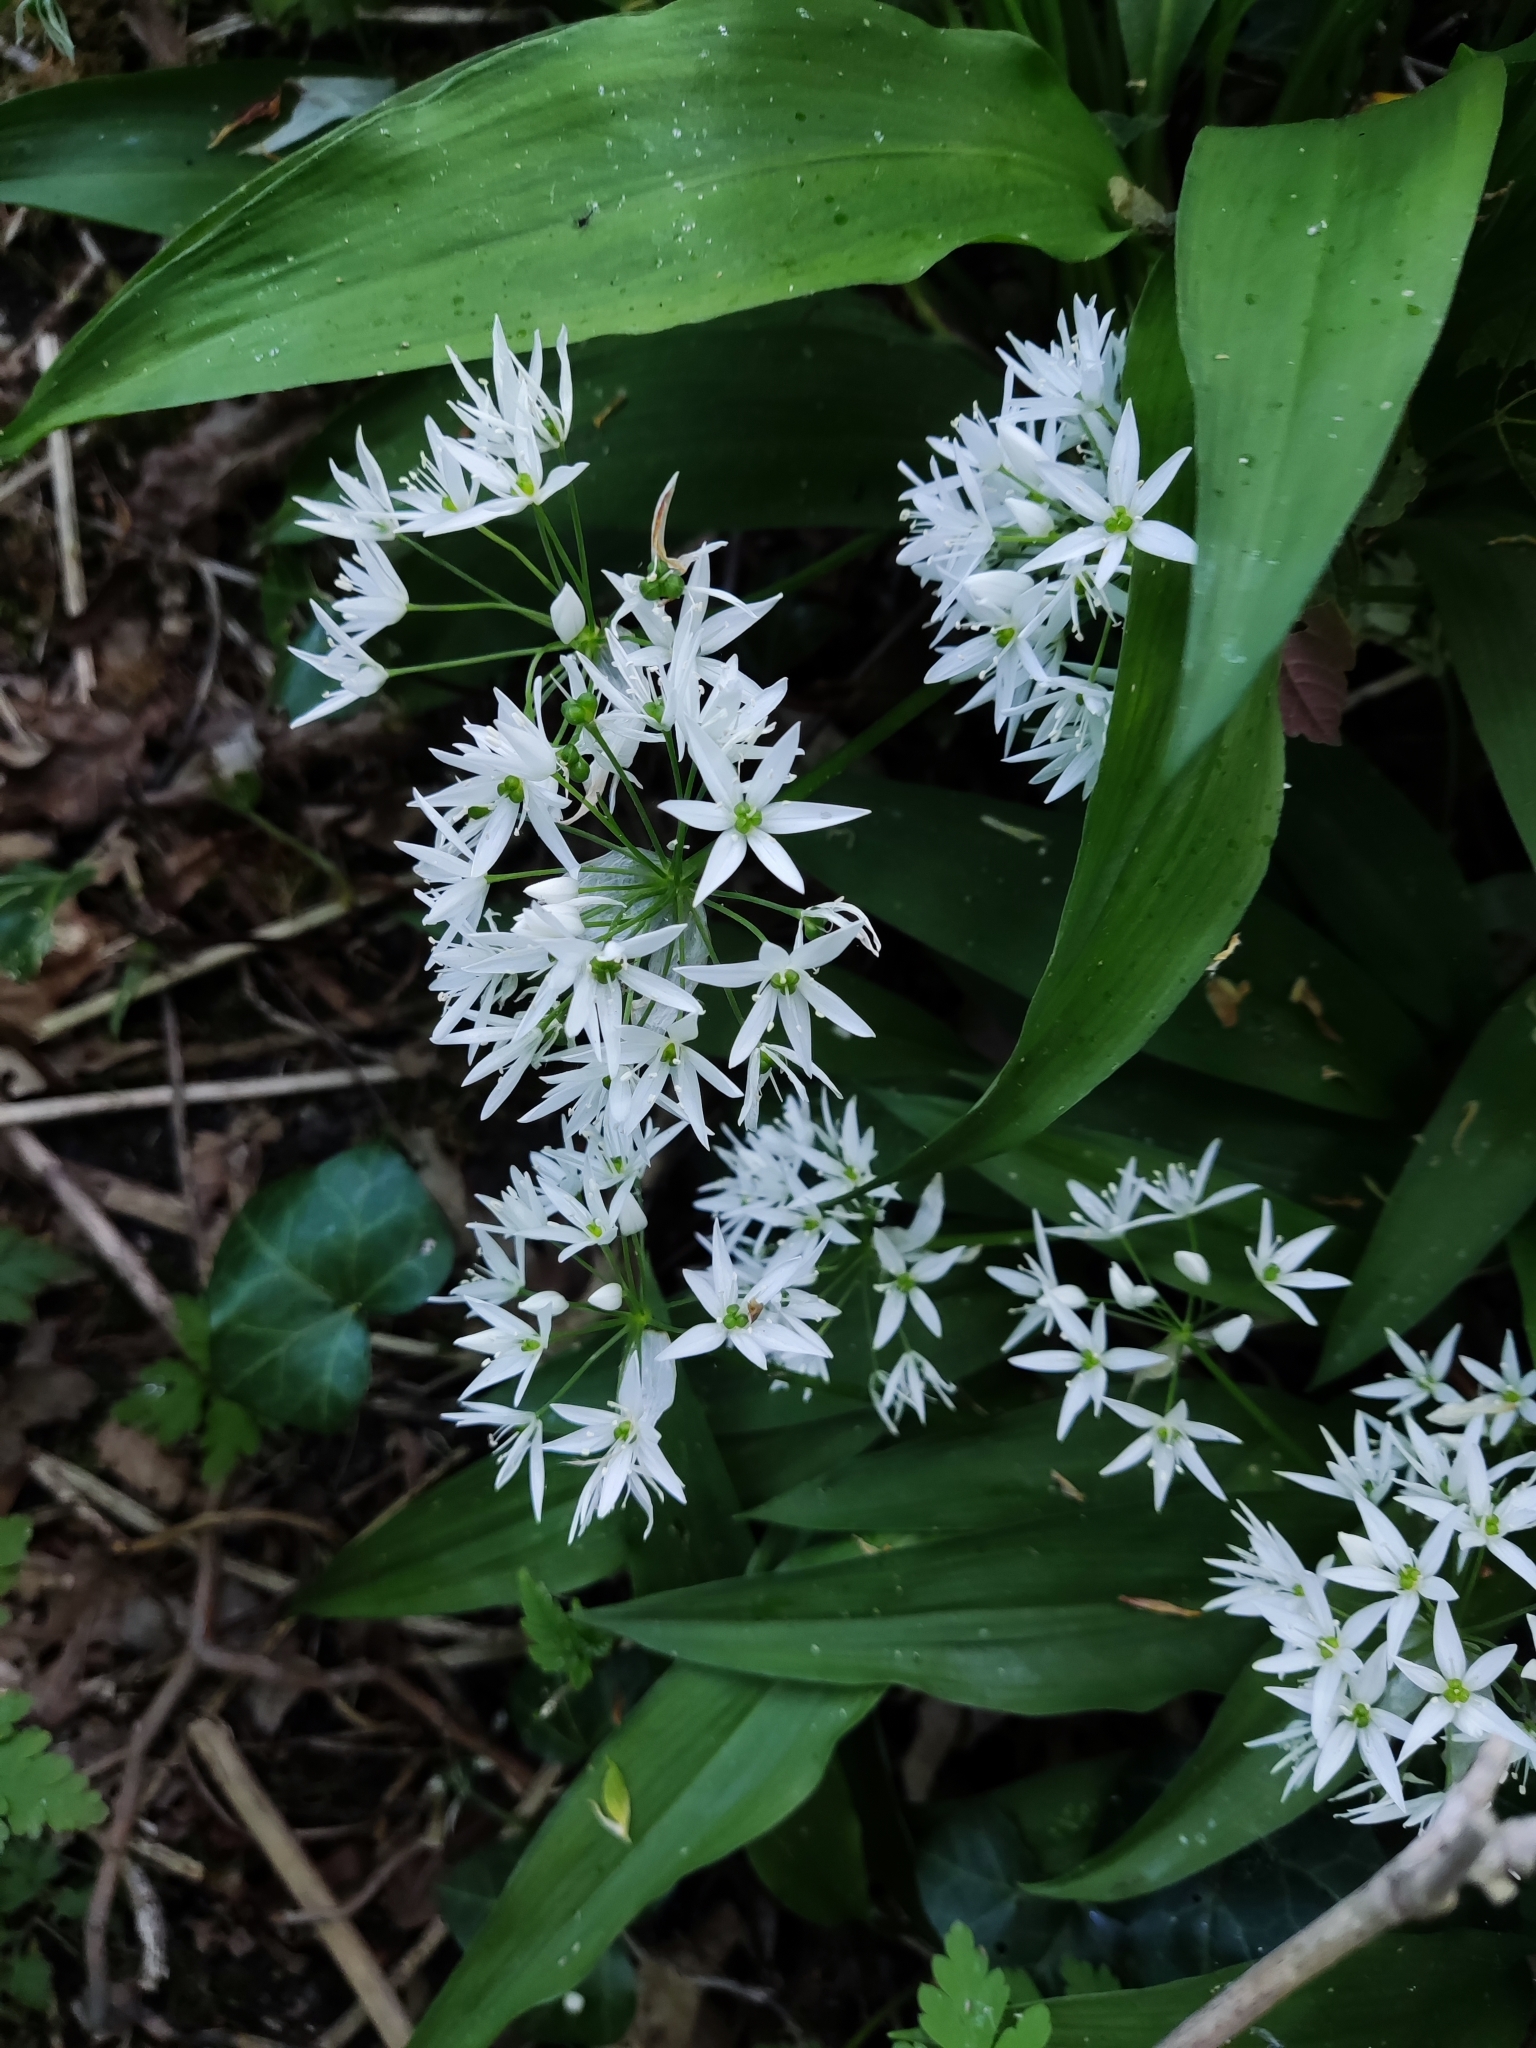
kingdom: Plantae
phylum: Tracheophyta
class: Liliopsida
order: Asparagales
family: Amaryllidaceae
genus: Allium
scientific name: Allium ursinum
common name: Ramsons
